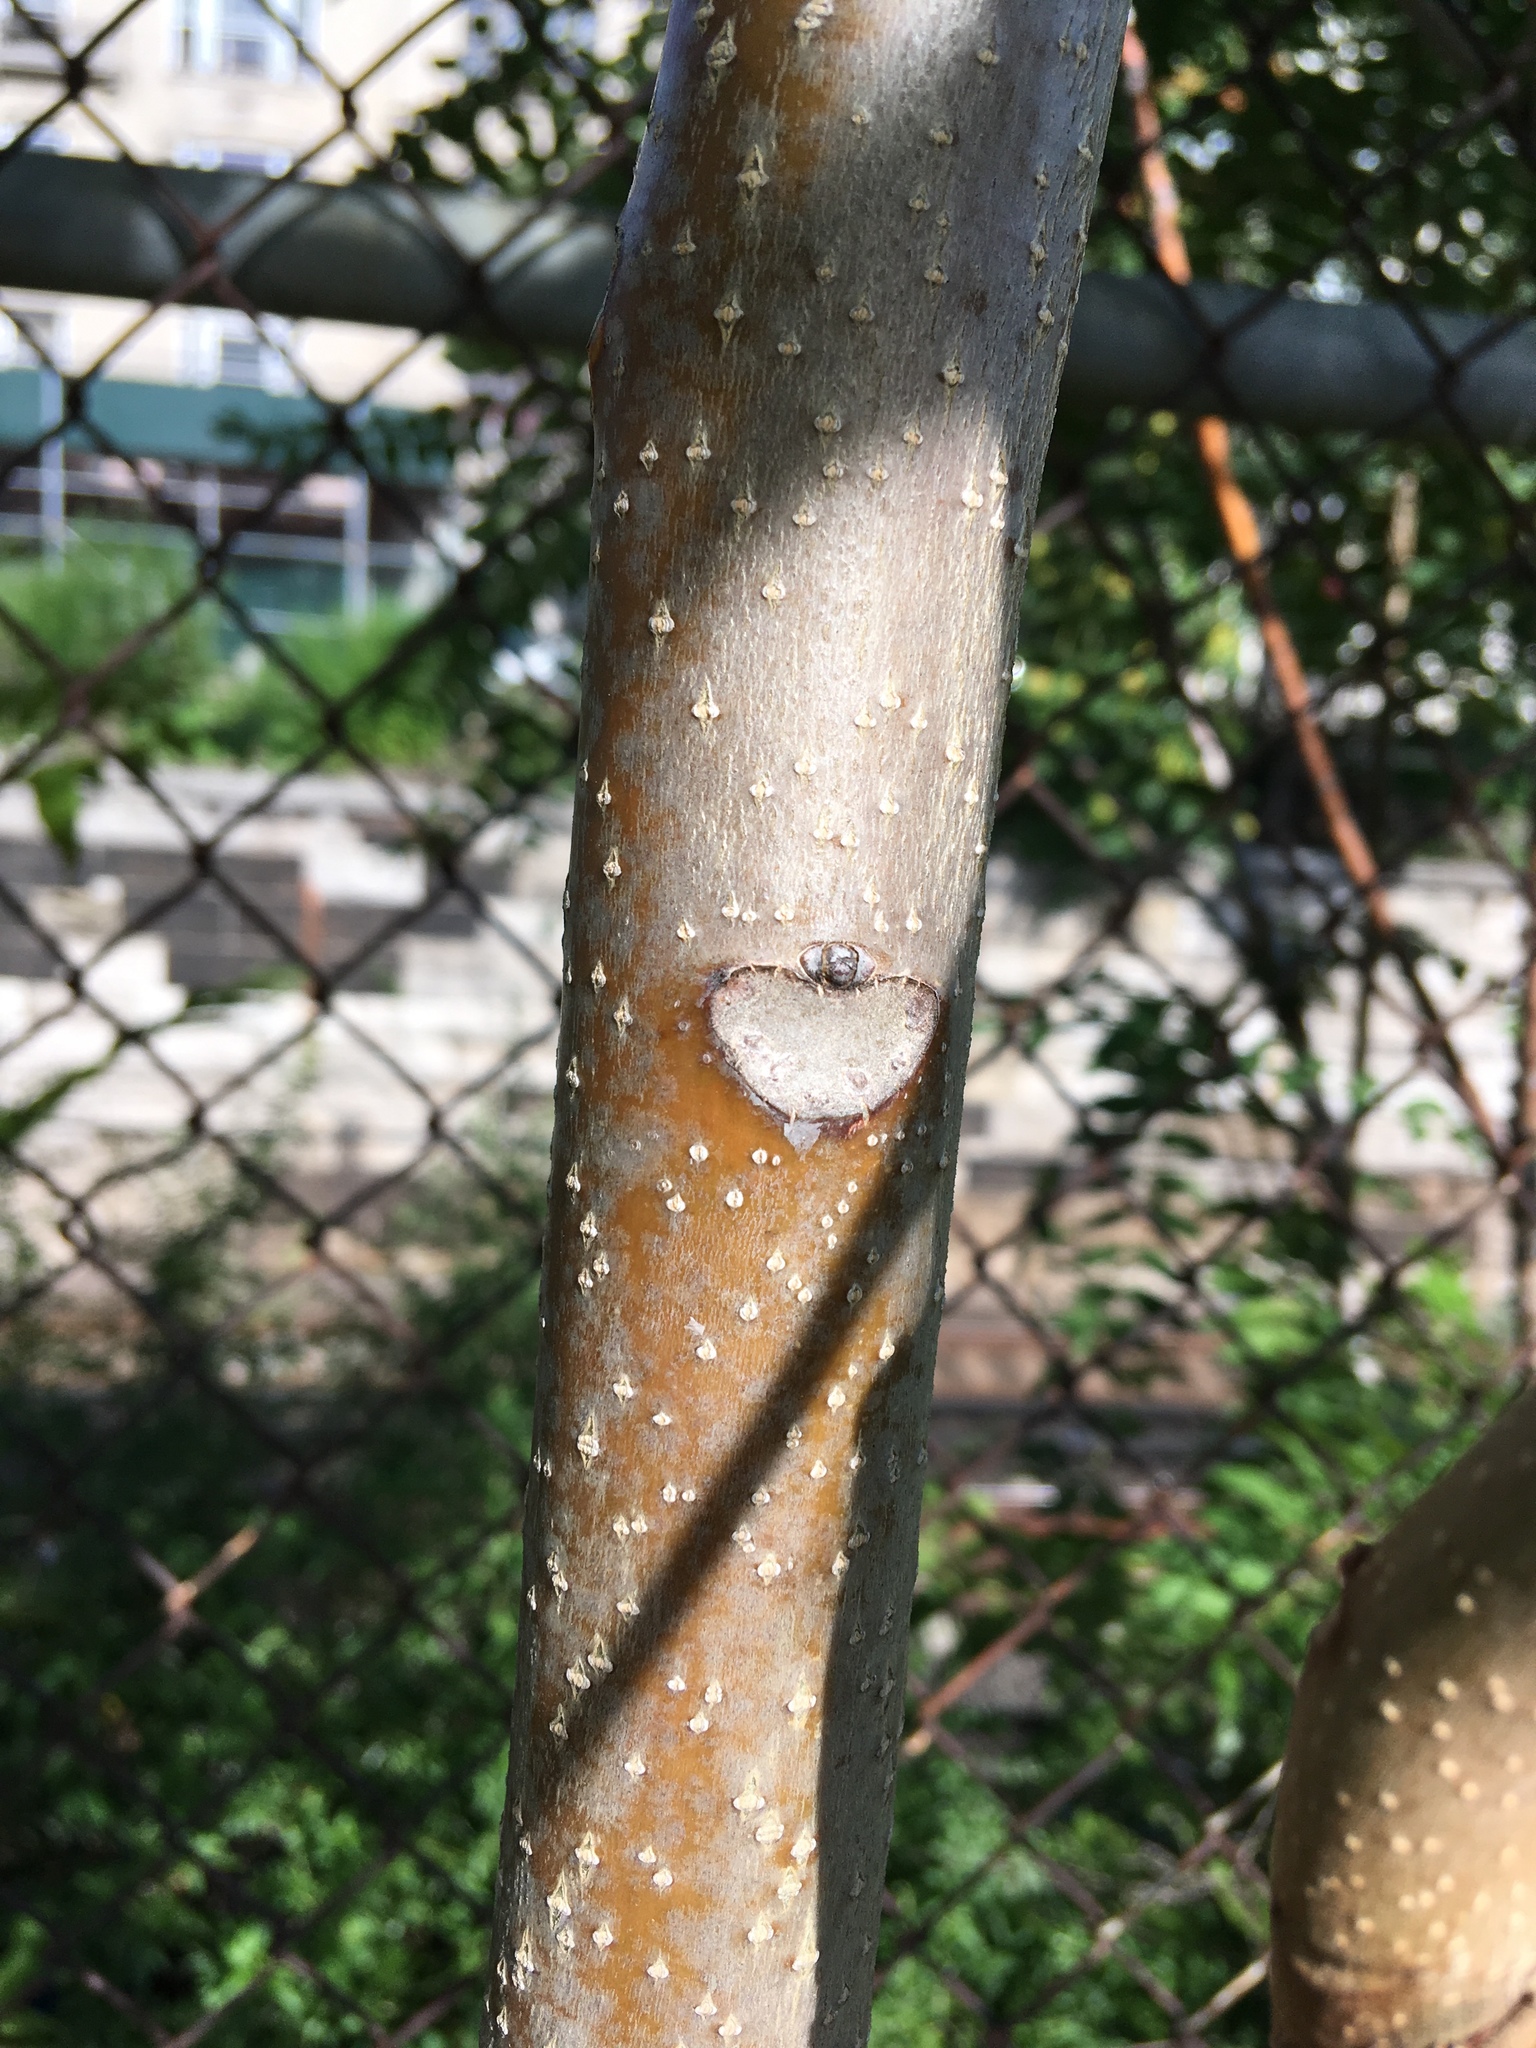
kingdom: Plantae
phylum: Tracheophyta
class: Magnoliopsida
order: Sapindales
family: Simaroubaceae
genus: Ailanthus
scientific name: Ailanthus altissima
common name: Tree-of-heaven
